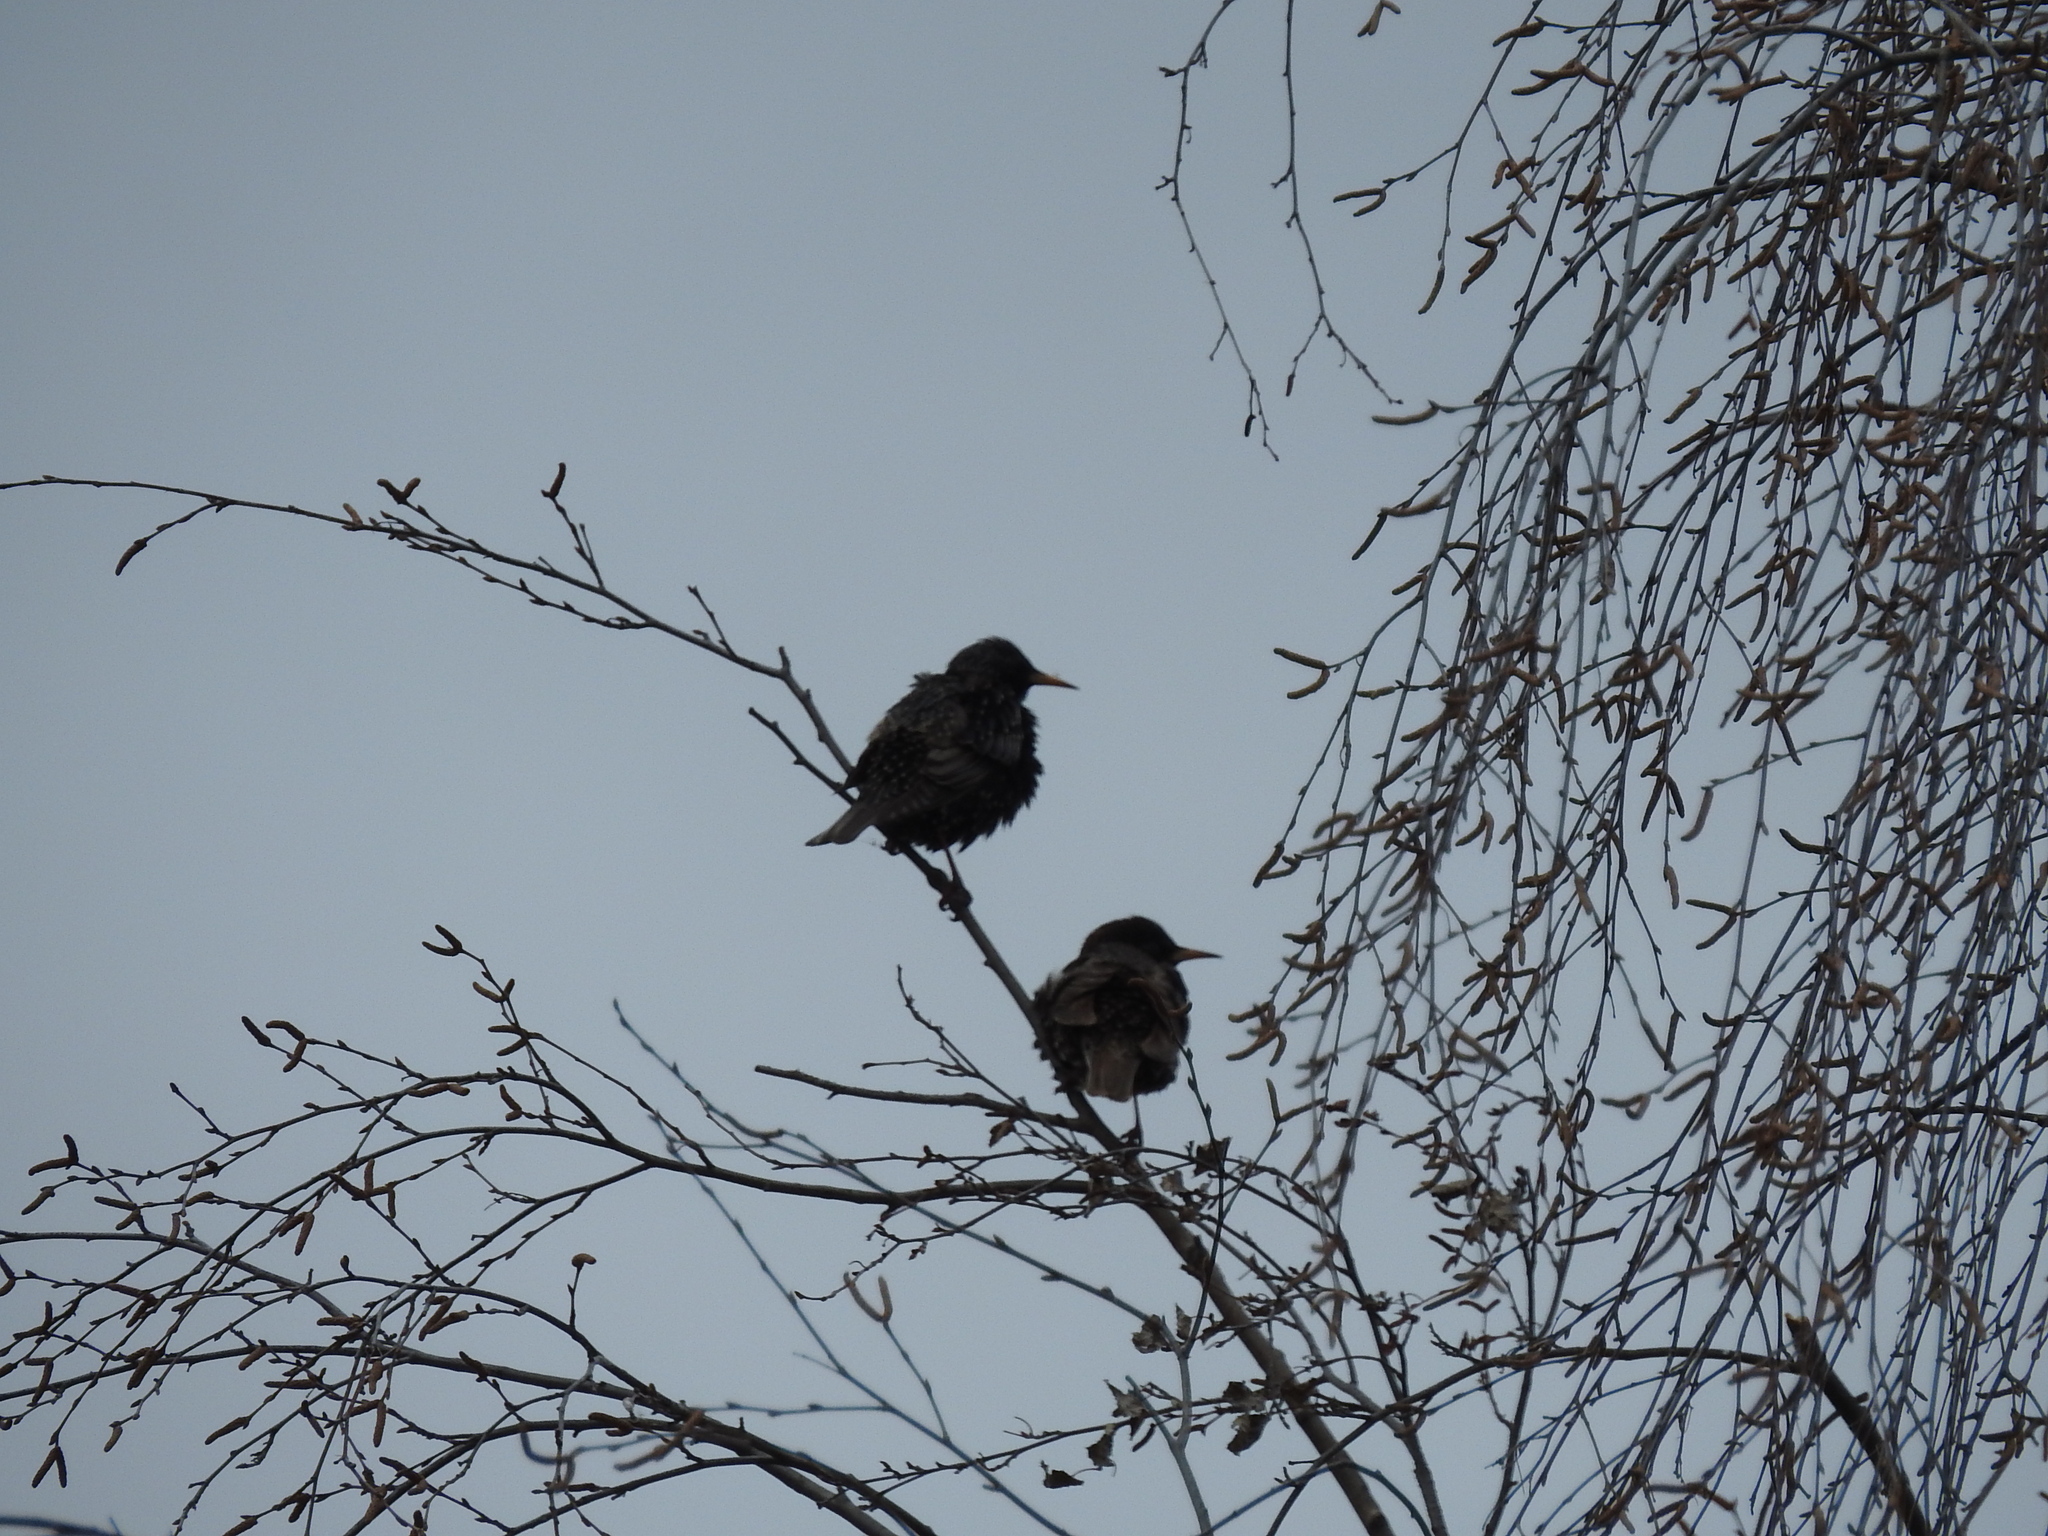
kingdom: Animalia
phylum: Chordata
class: Aves
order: Passeriformes
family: Sturnidae
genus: Sturnus
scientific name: Sturnus vulgaris
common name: Common starling
